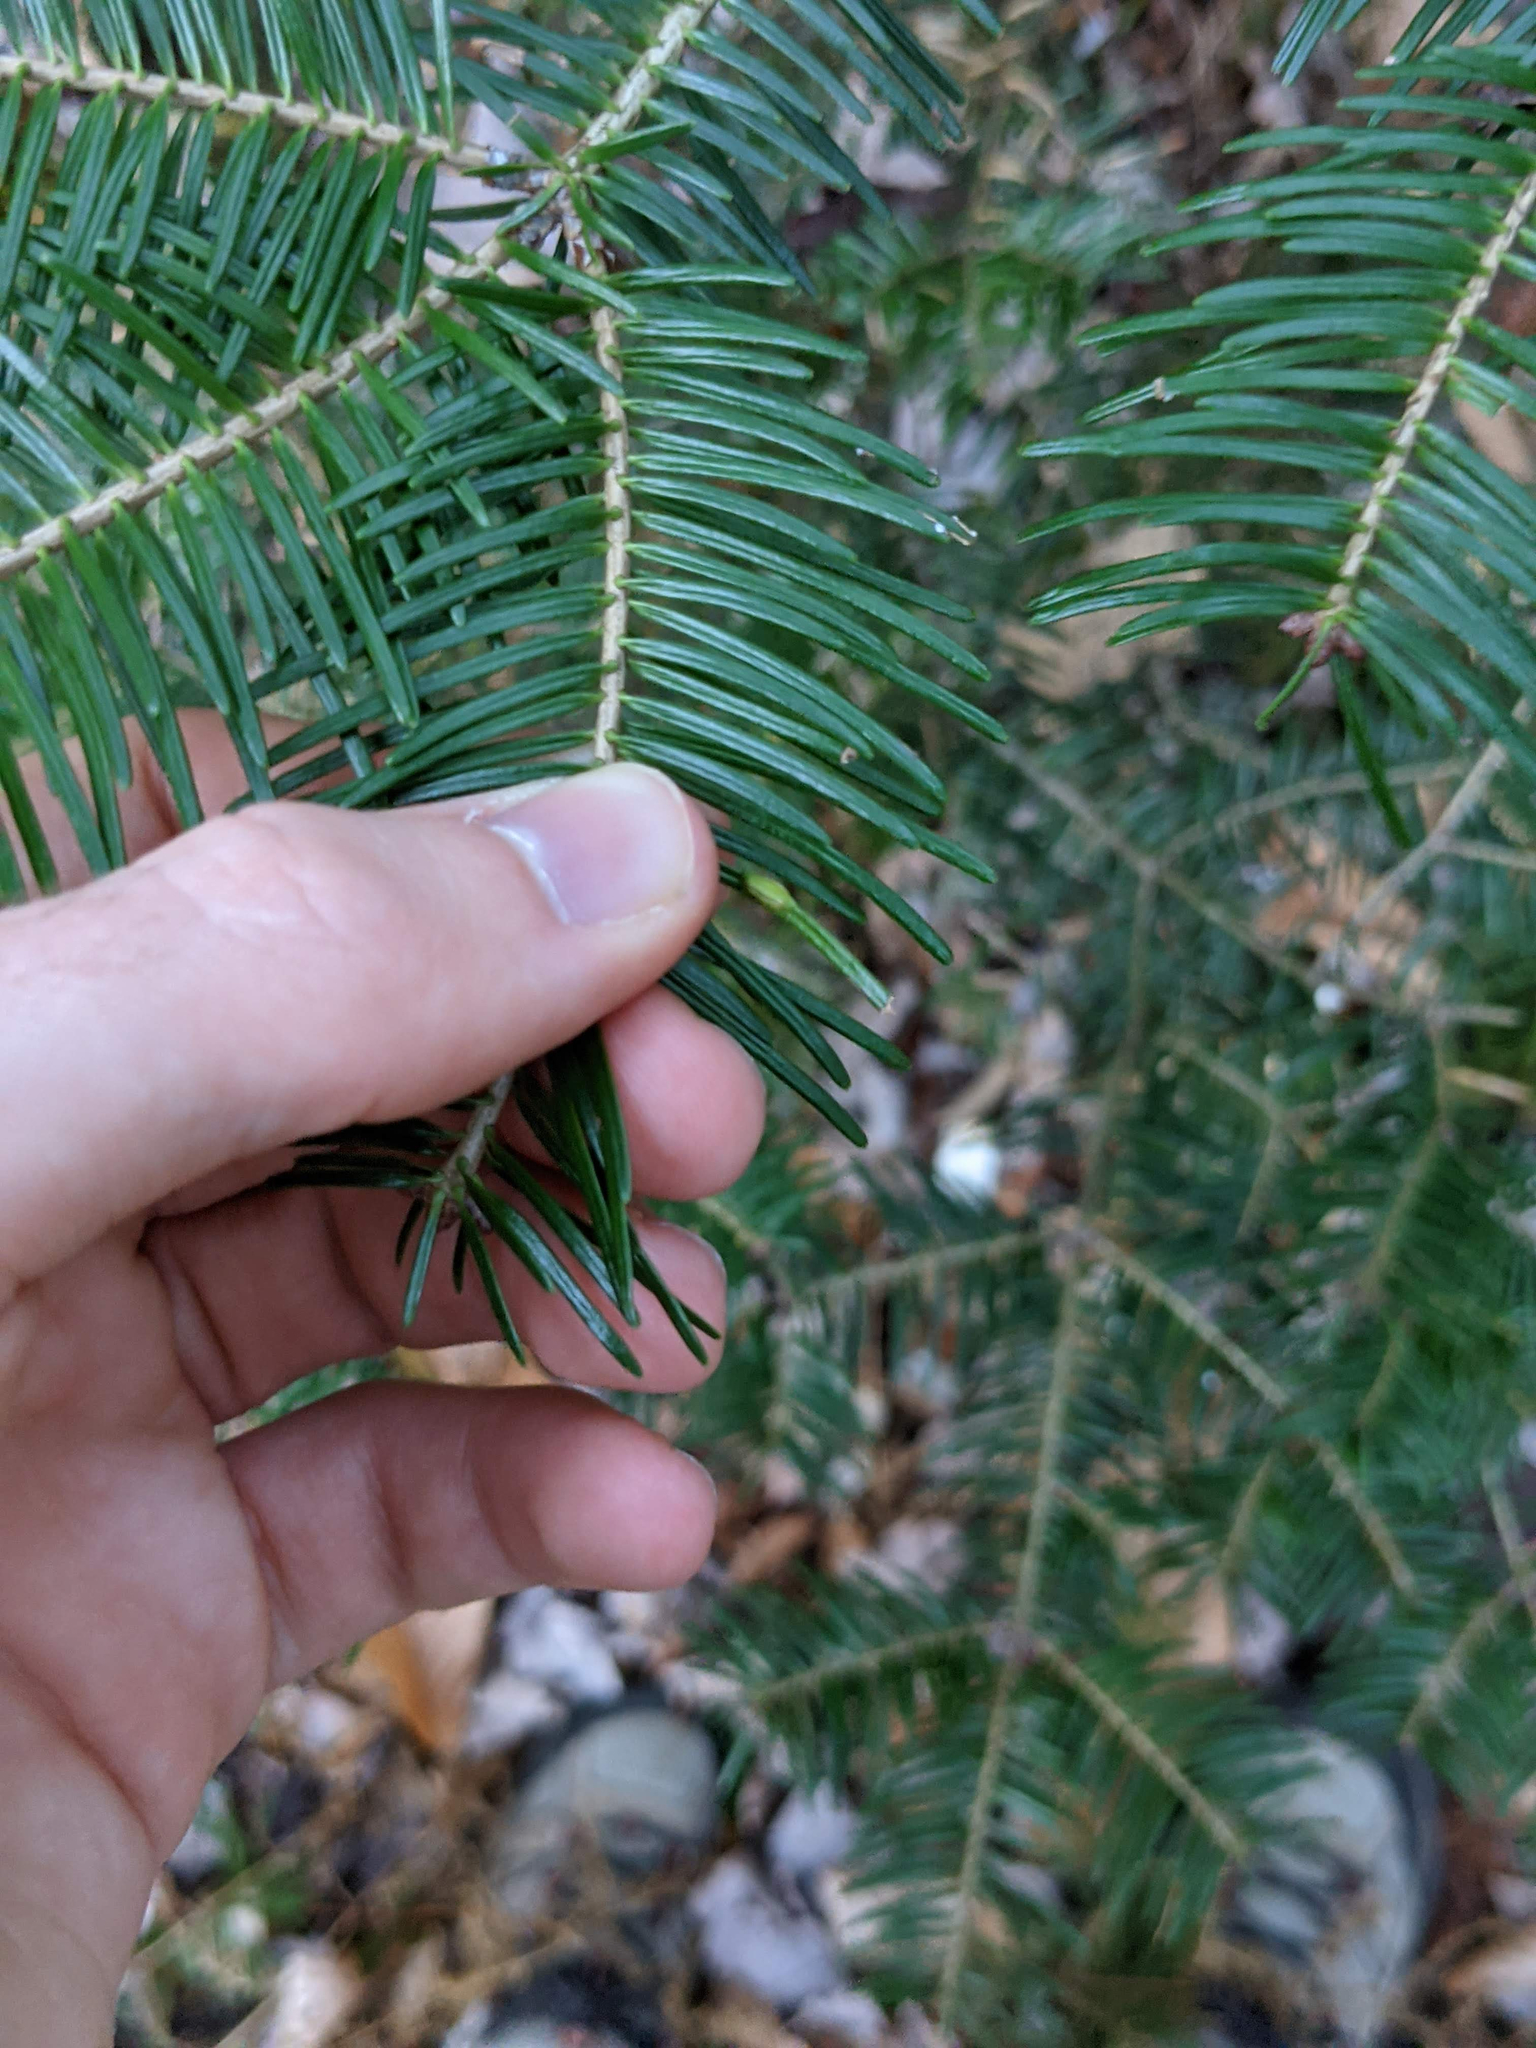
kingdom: Animalia
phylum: Arthropoda
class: Insecta
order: Diptera
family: Cecidomyiidae
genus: Paradiplosis
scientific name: Paradiplosis tumifex
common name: Gall midge
